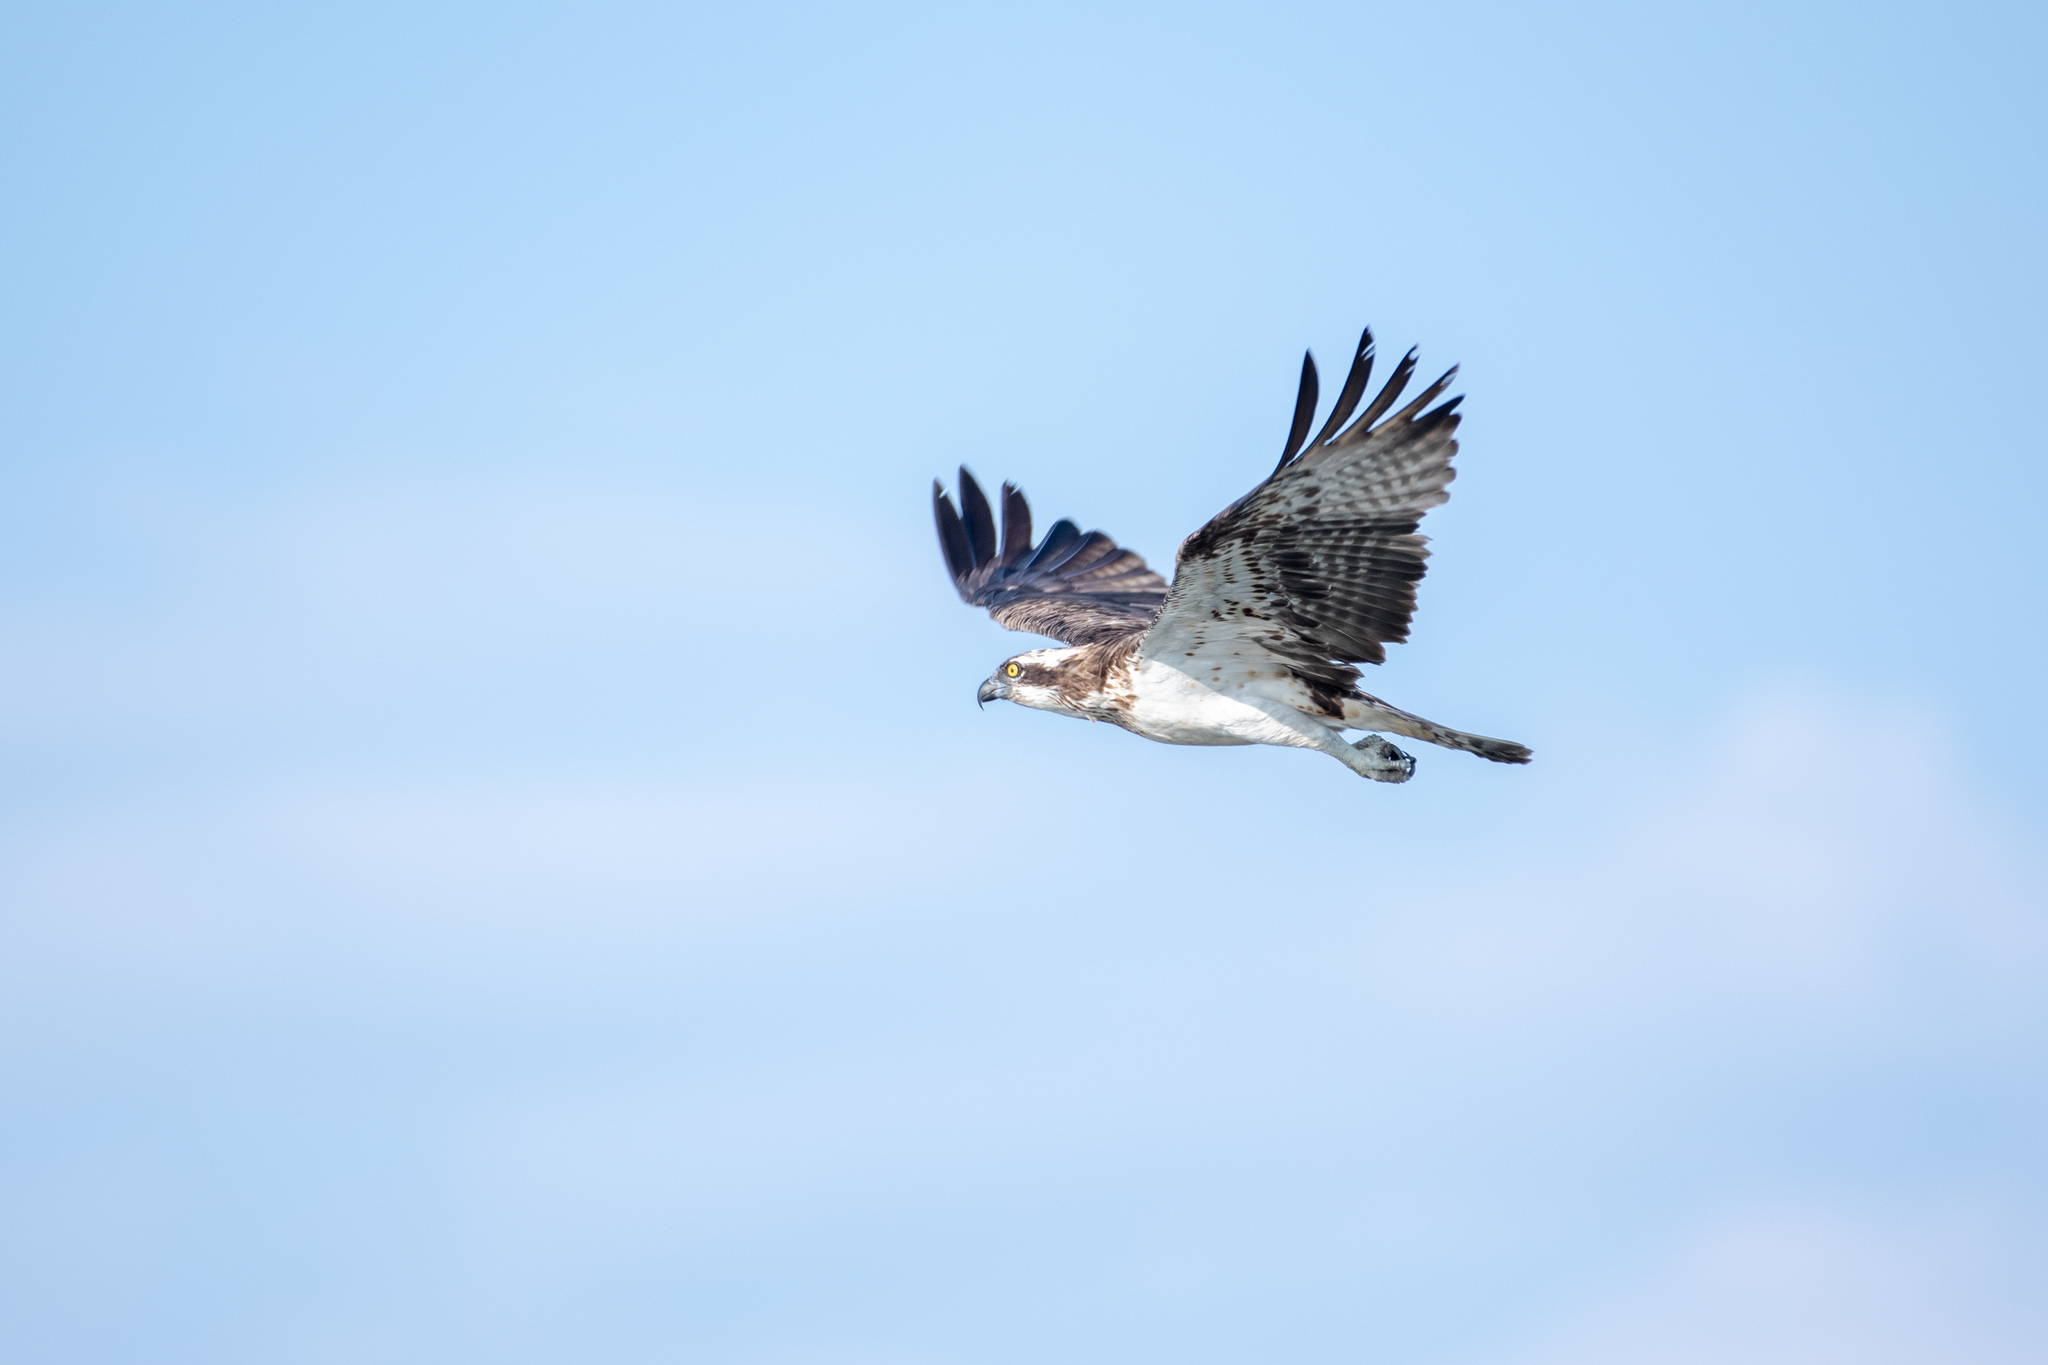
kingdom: Animalia
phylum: Chordata
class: Aves
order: Accipitriformes
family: Pandionidae
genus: Pandion
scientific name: Pandion haliaetus
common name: Osprey
